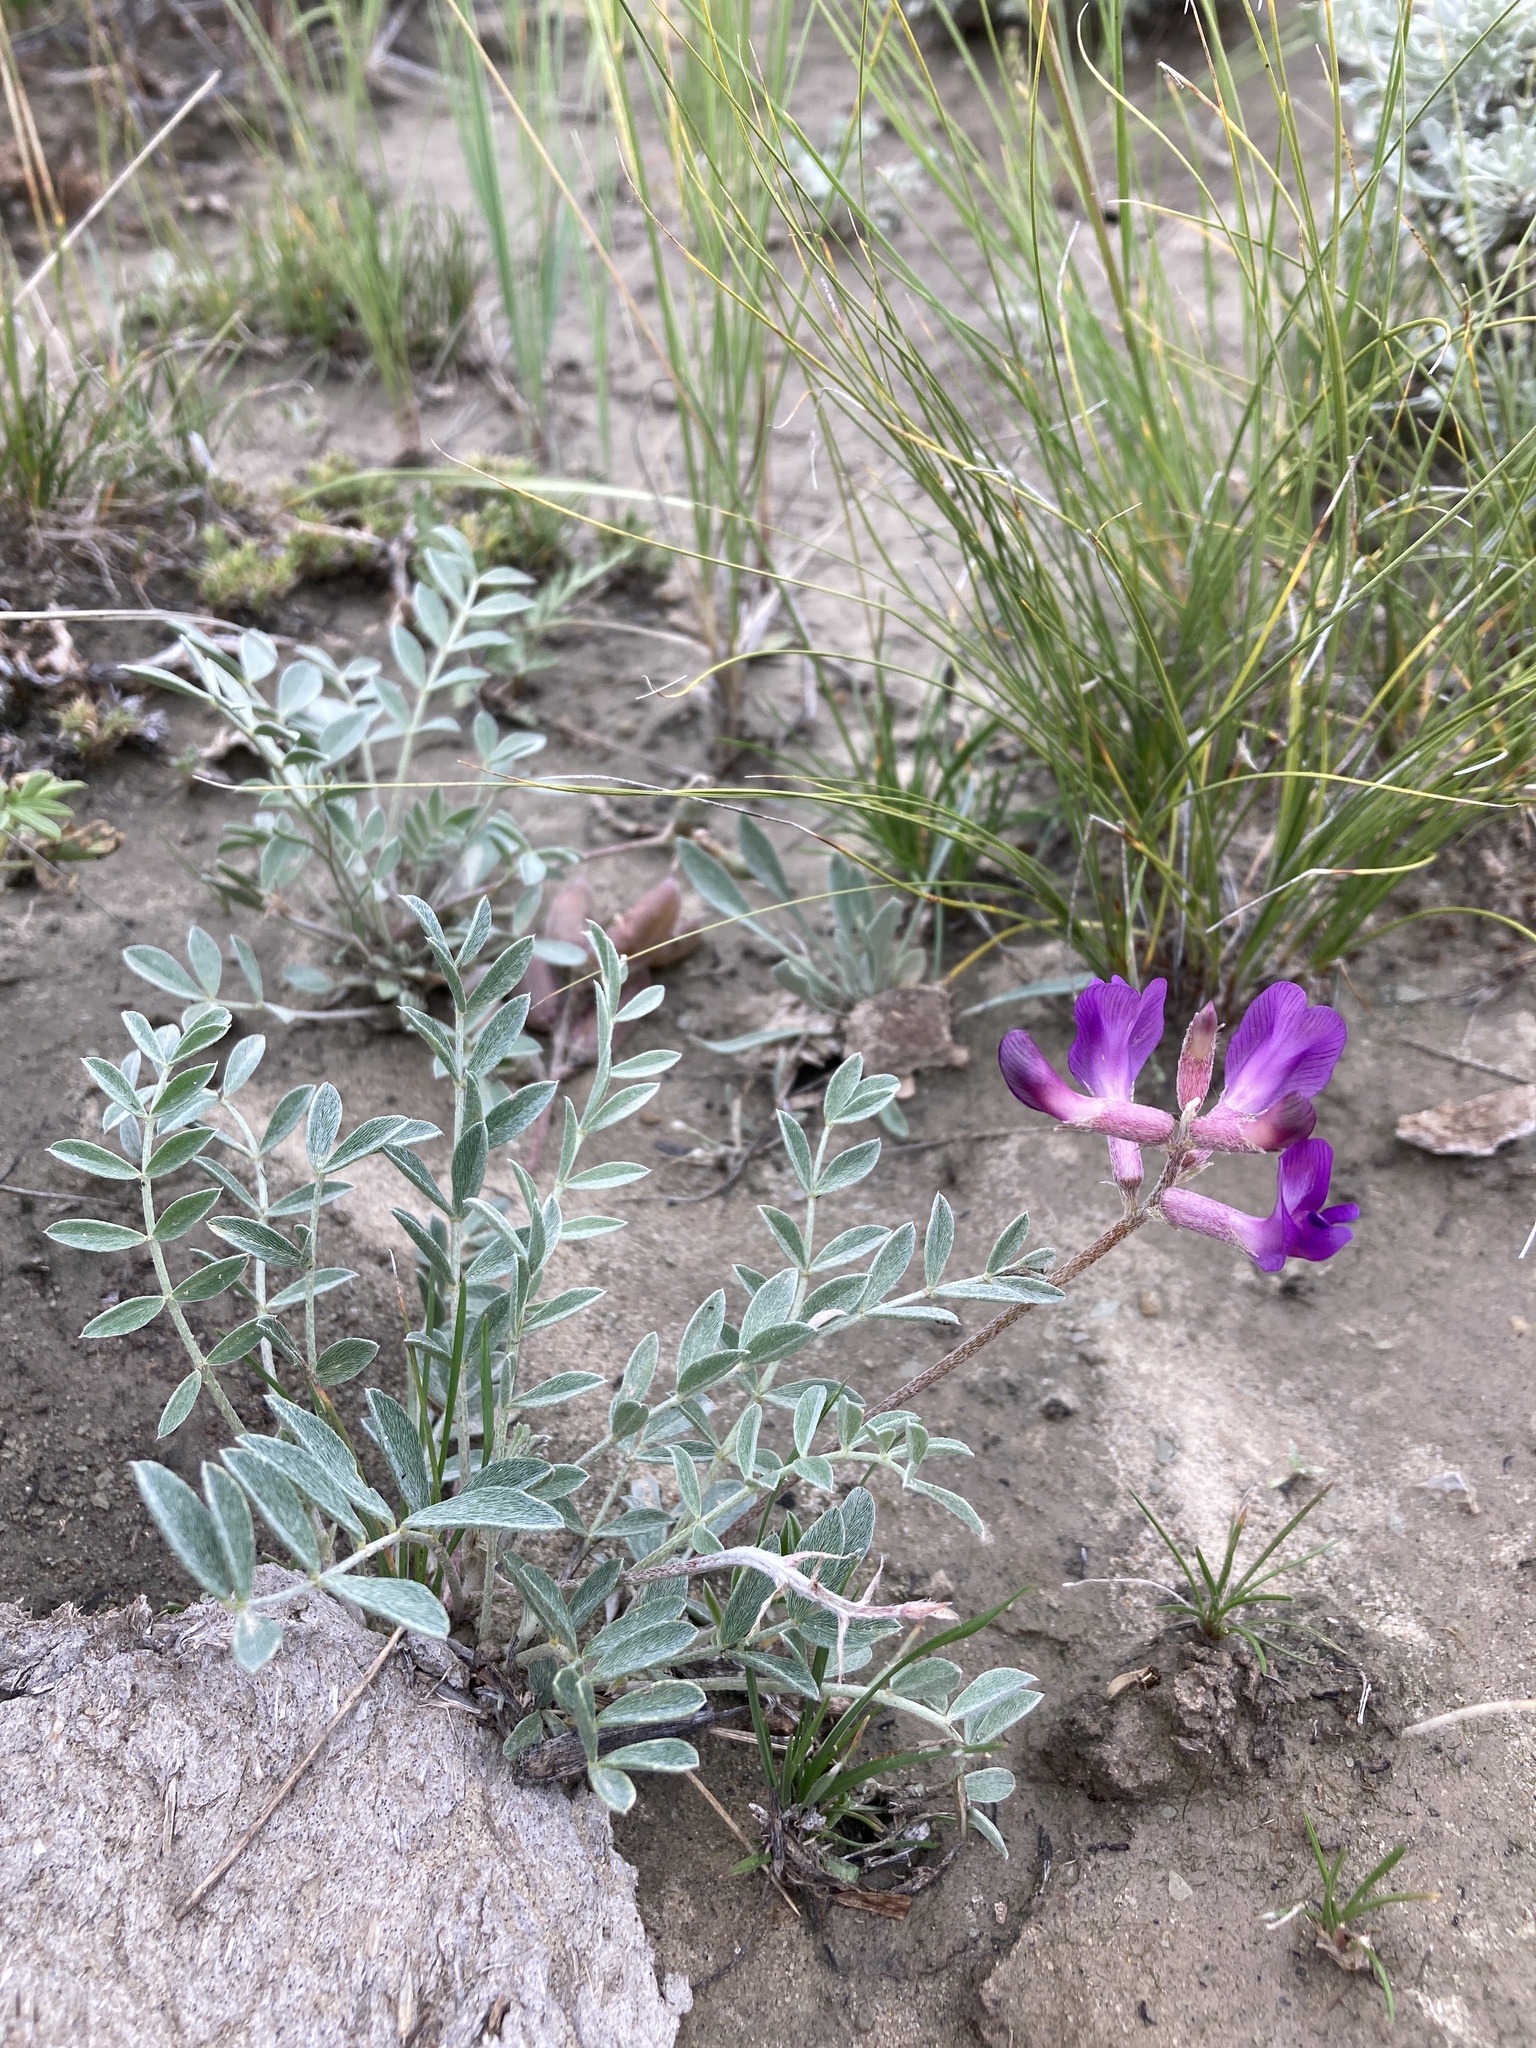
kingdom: Plantae
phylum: Tracheophyta
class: Magnoliopsida
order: Fabales
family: Fabaceae
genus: Astragalus
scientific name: Astragalus missouriensis
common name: Missouri milk-vetch
